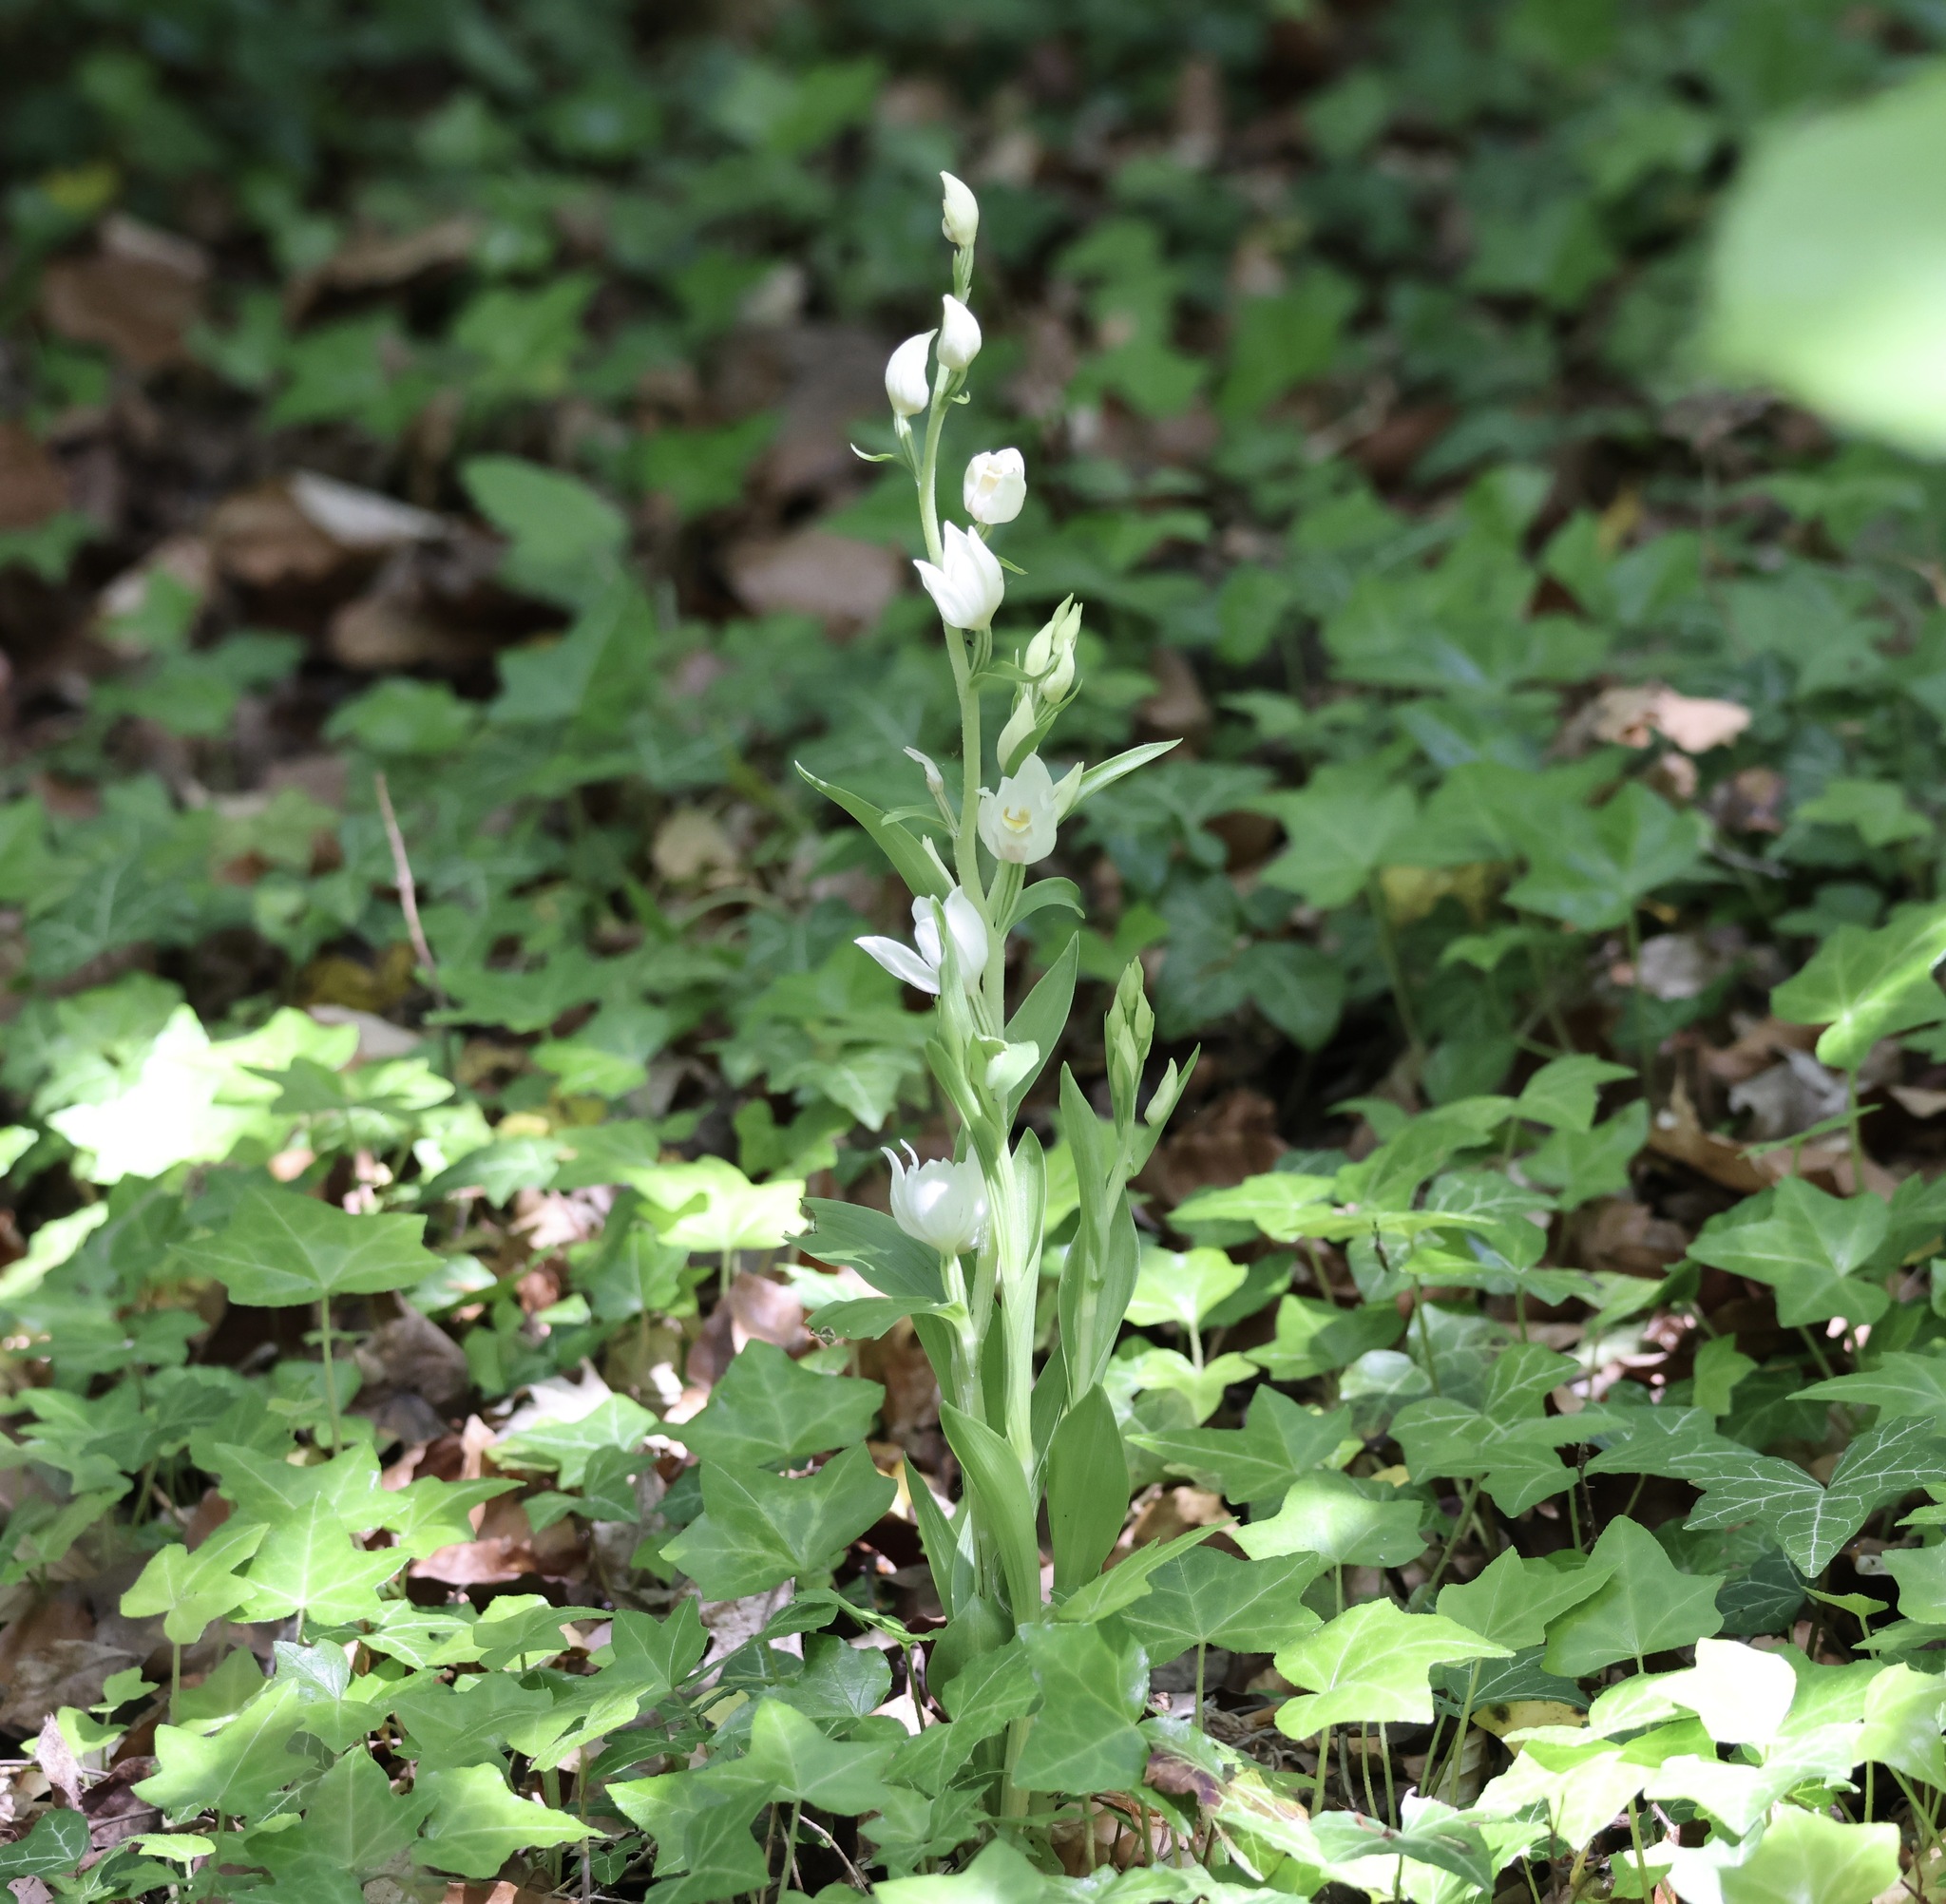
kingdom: Plantae
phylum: Tracheophyta
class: Liliopsida
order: Asparagales
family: Orchidaceae
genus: Cephalanthera
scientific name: Cephalanthera damasonium
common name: White helleborine
